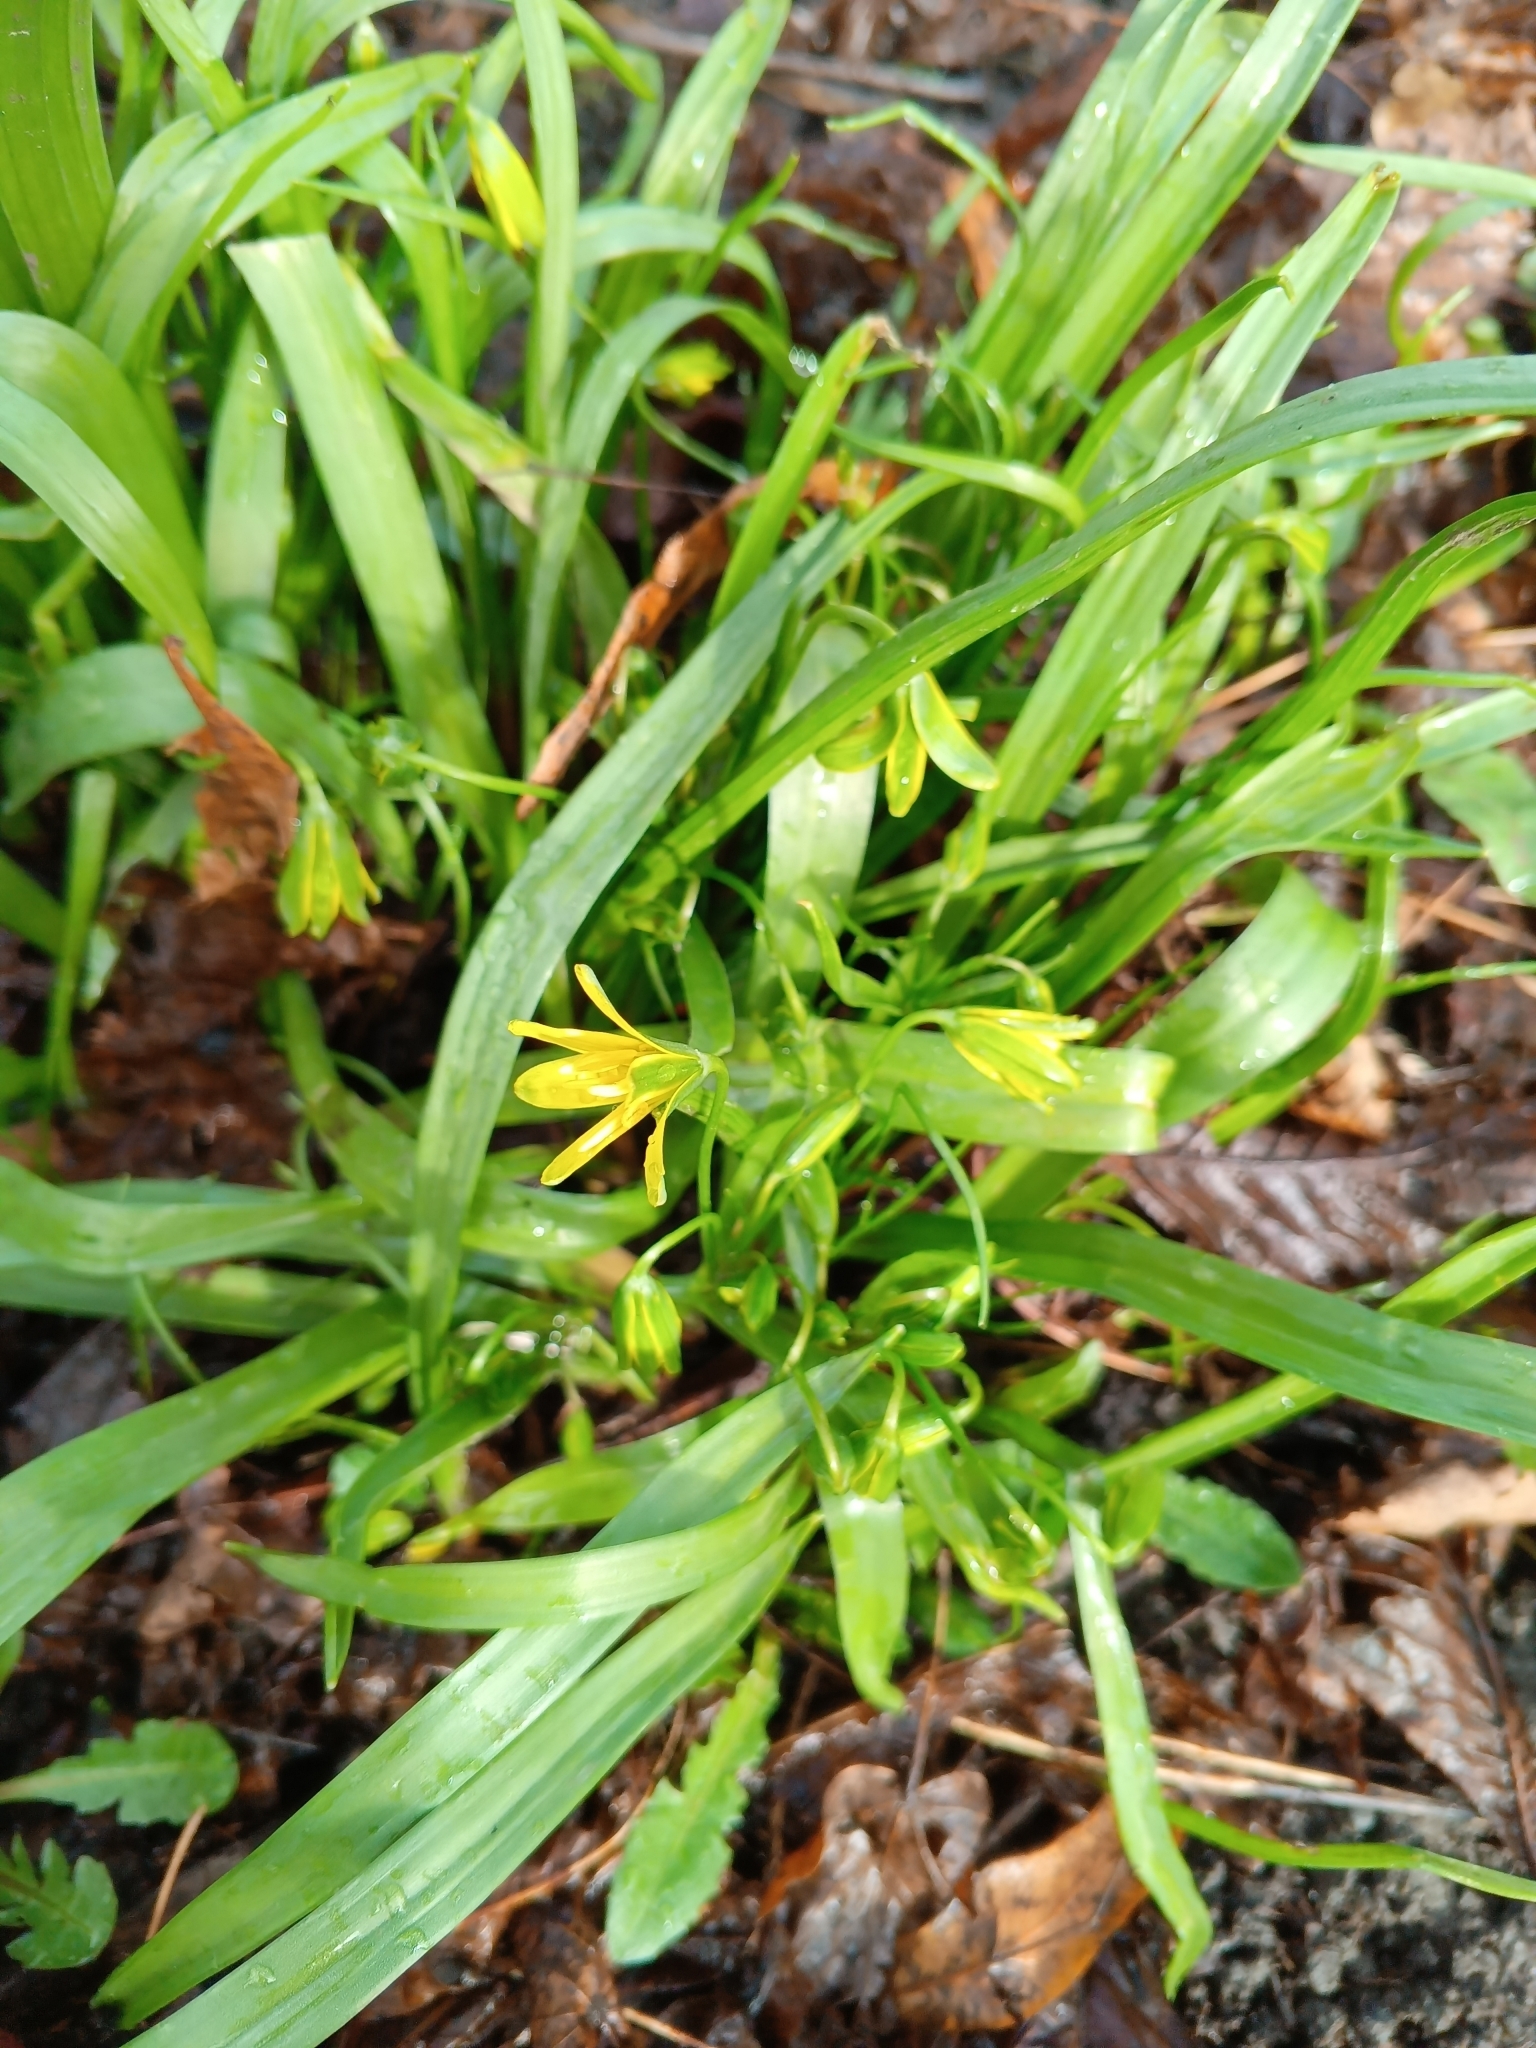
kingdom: Plantae
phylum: Tracheophyta
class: Liliopsida
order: Liliales
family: Liliaceae
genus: Gagea
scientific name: Gagea lutea
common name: Yellow star-of-bethlehem
